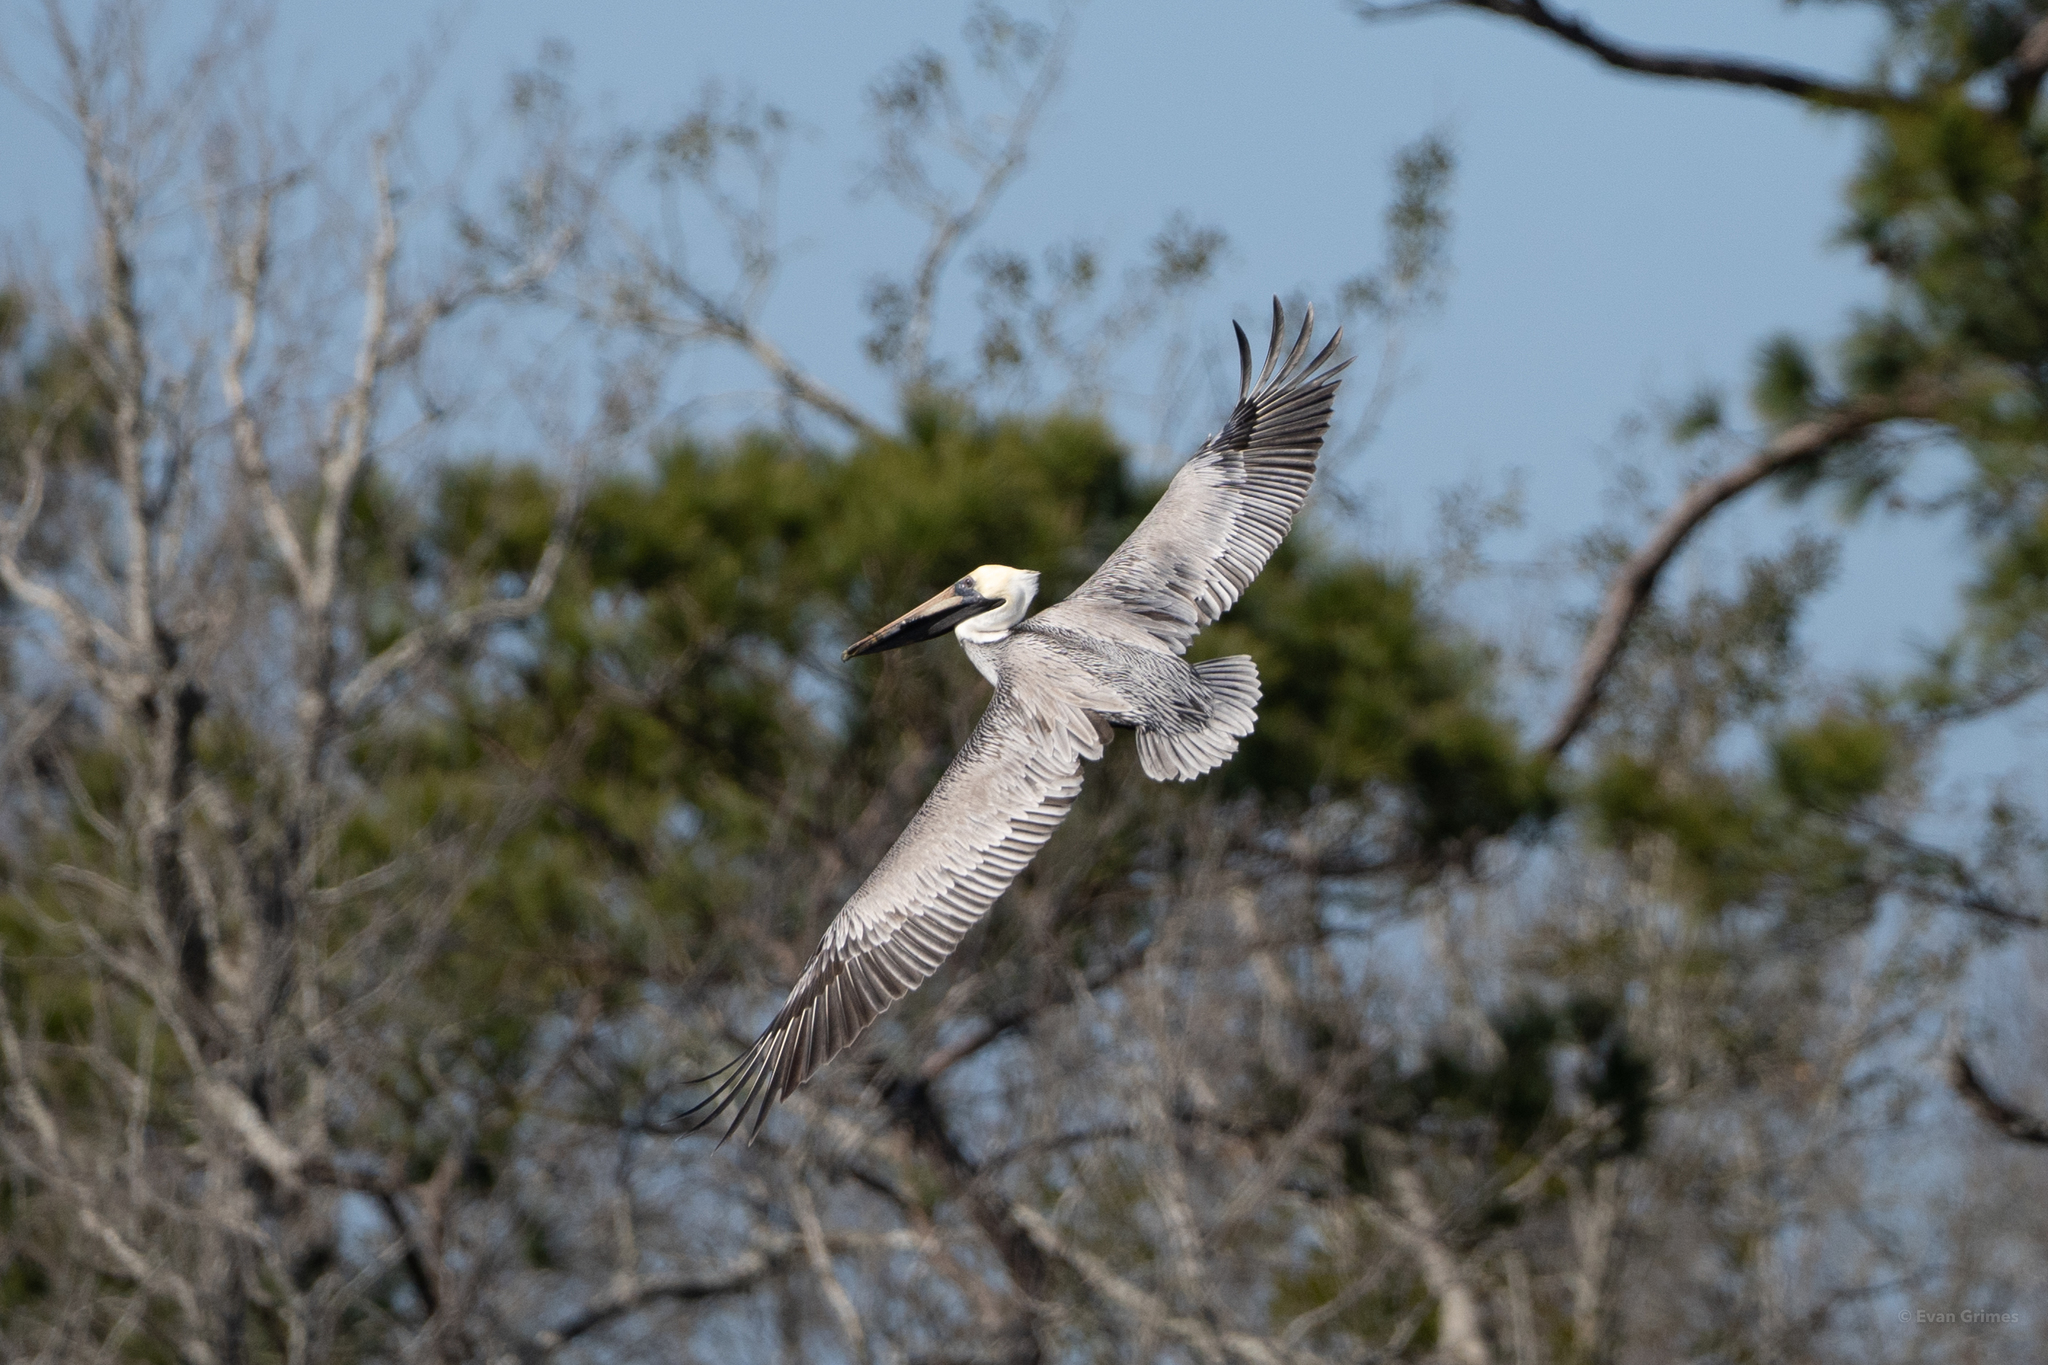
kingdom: Animalia
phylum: Chordata
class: Aves
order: Pelecaniformes
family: Pelecanidae
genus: Pelecanus
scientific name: Pelecanus occidentalis
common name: Brown pelican
